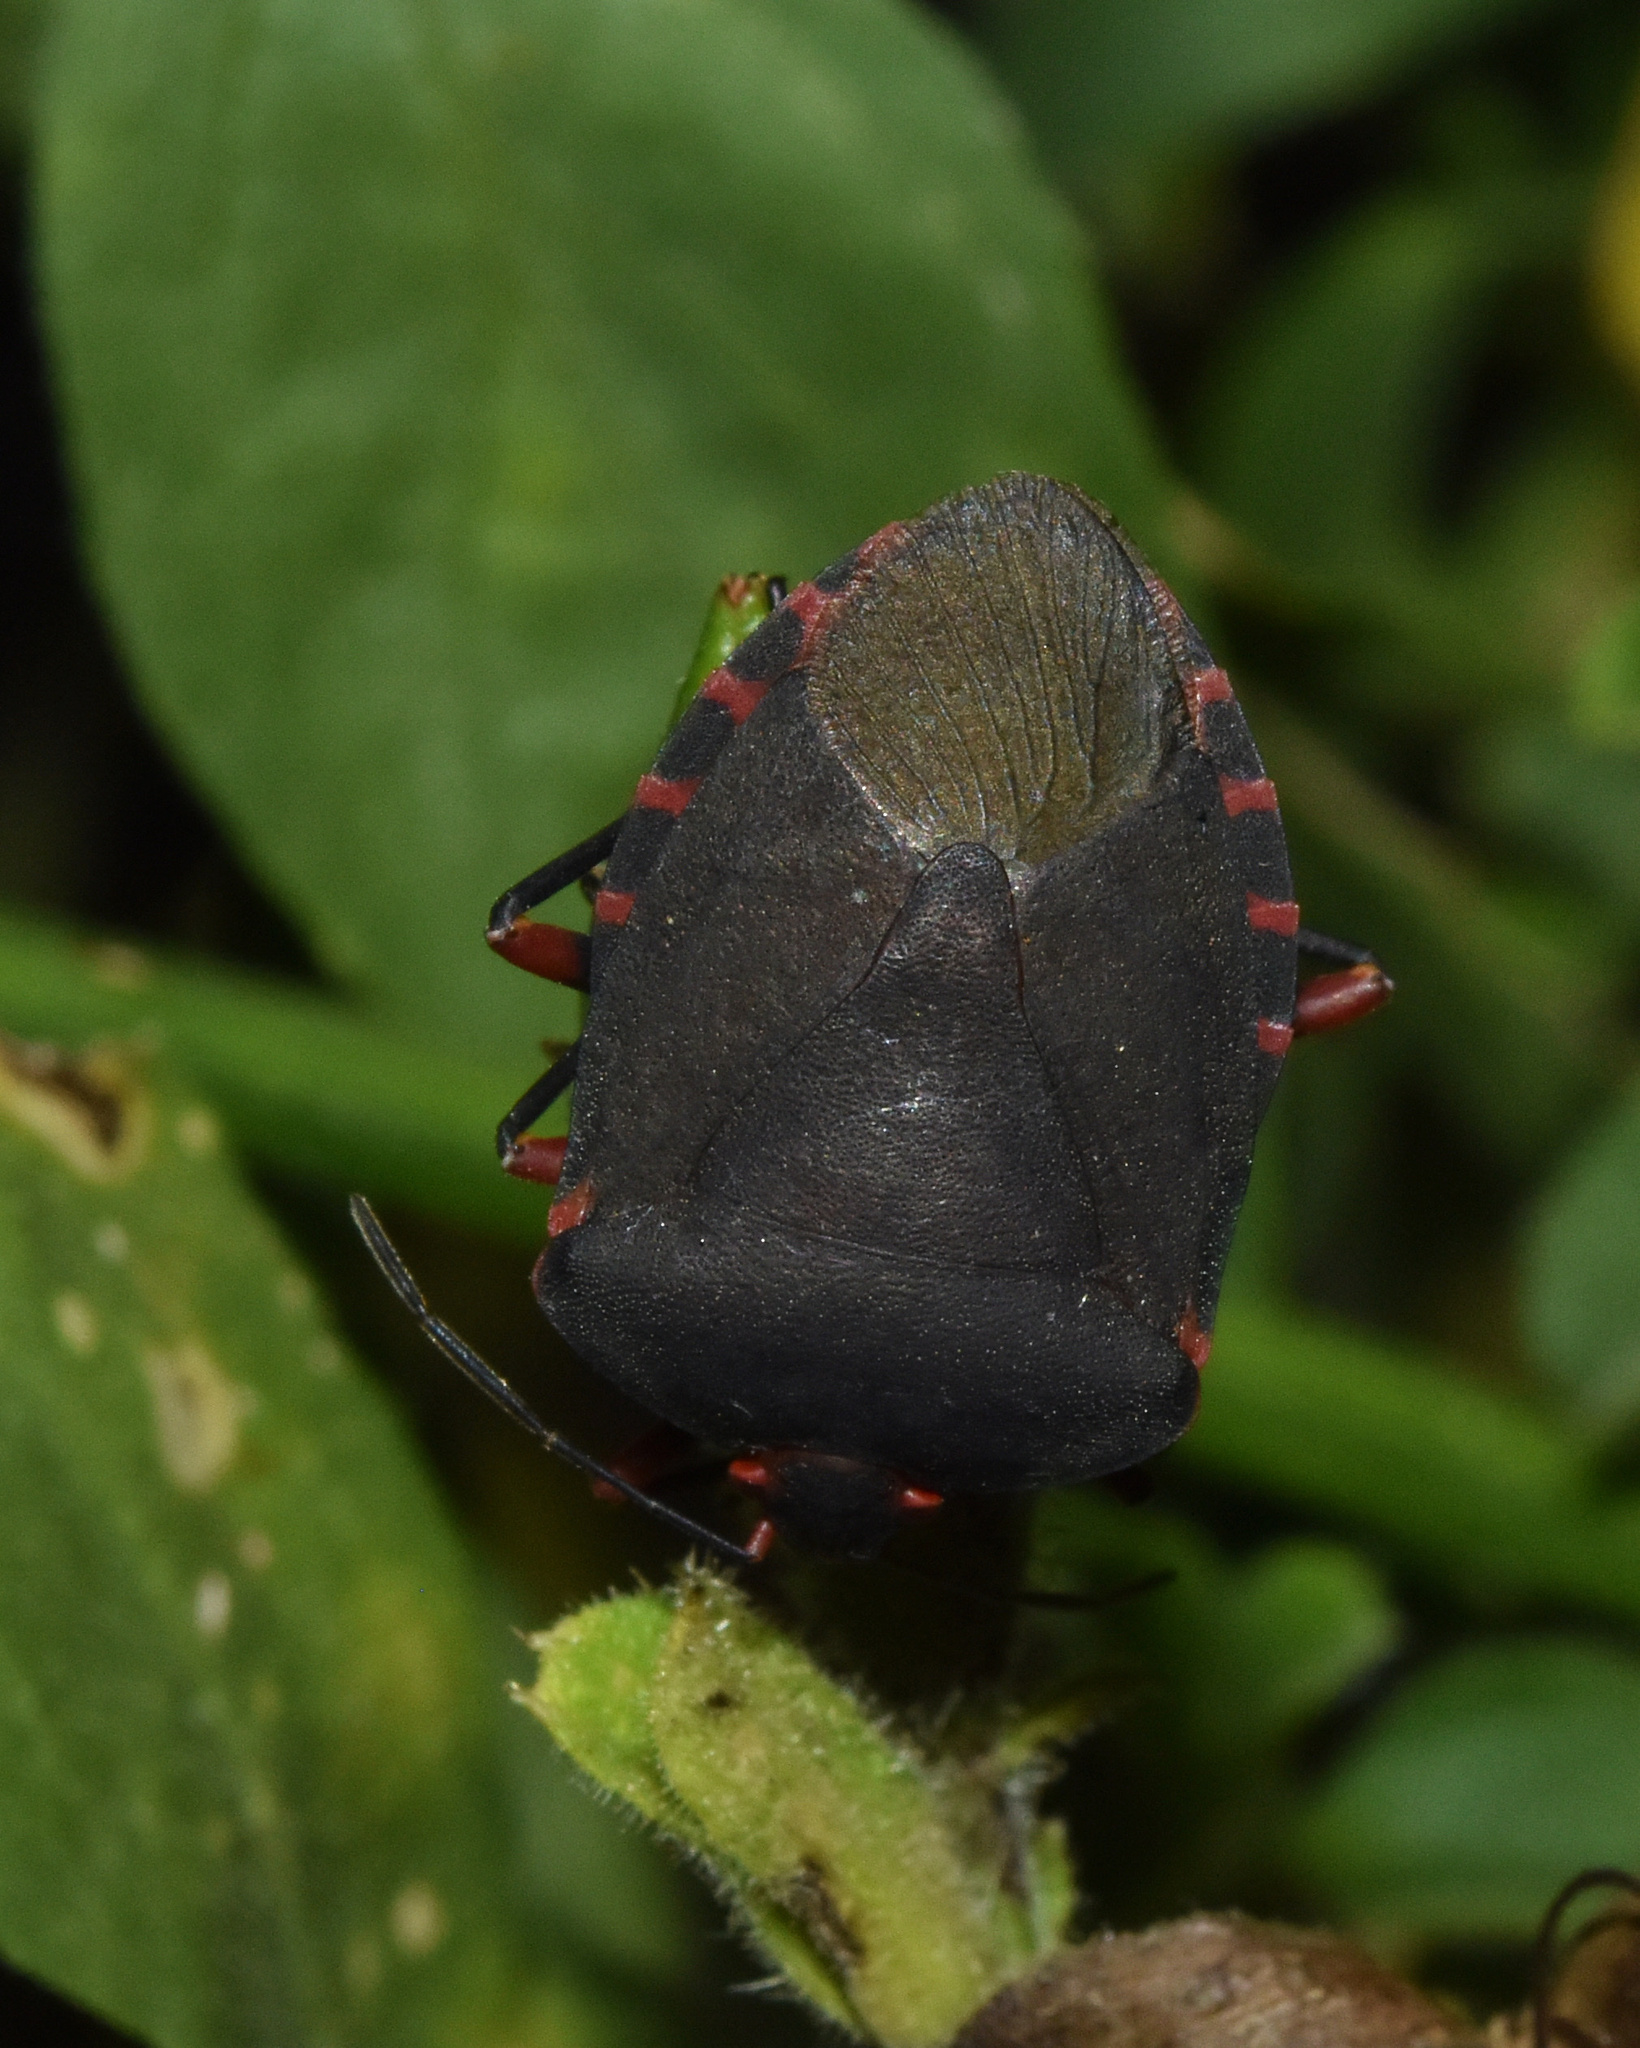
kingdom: Animalia
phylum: Arthropoda
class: Insecta
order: Hemiptera
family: Pentatomidae
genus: Caura
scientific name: Caura rufiventris
